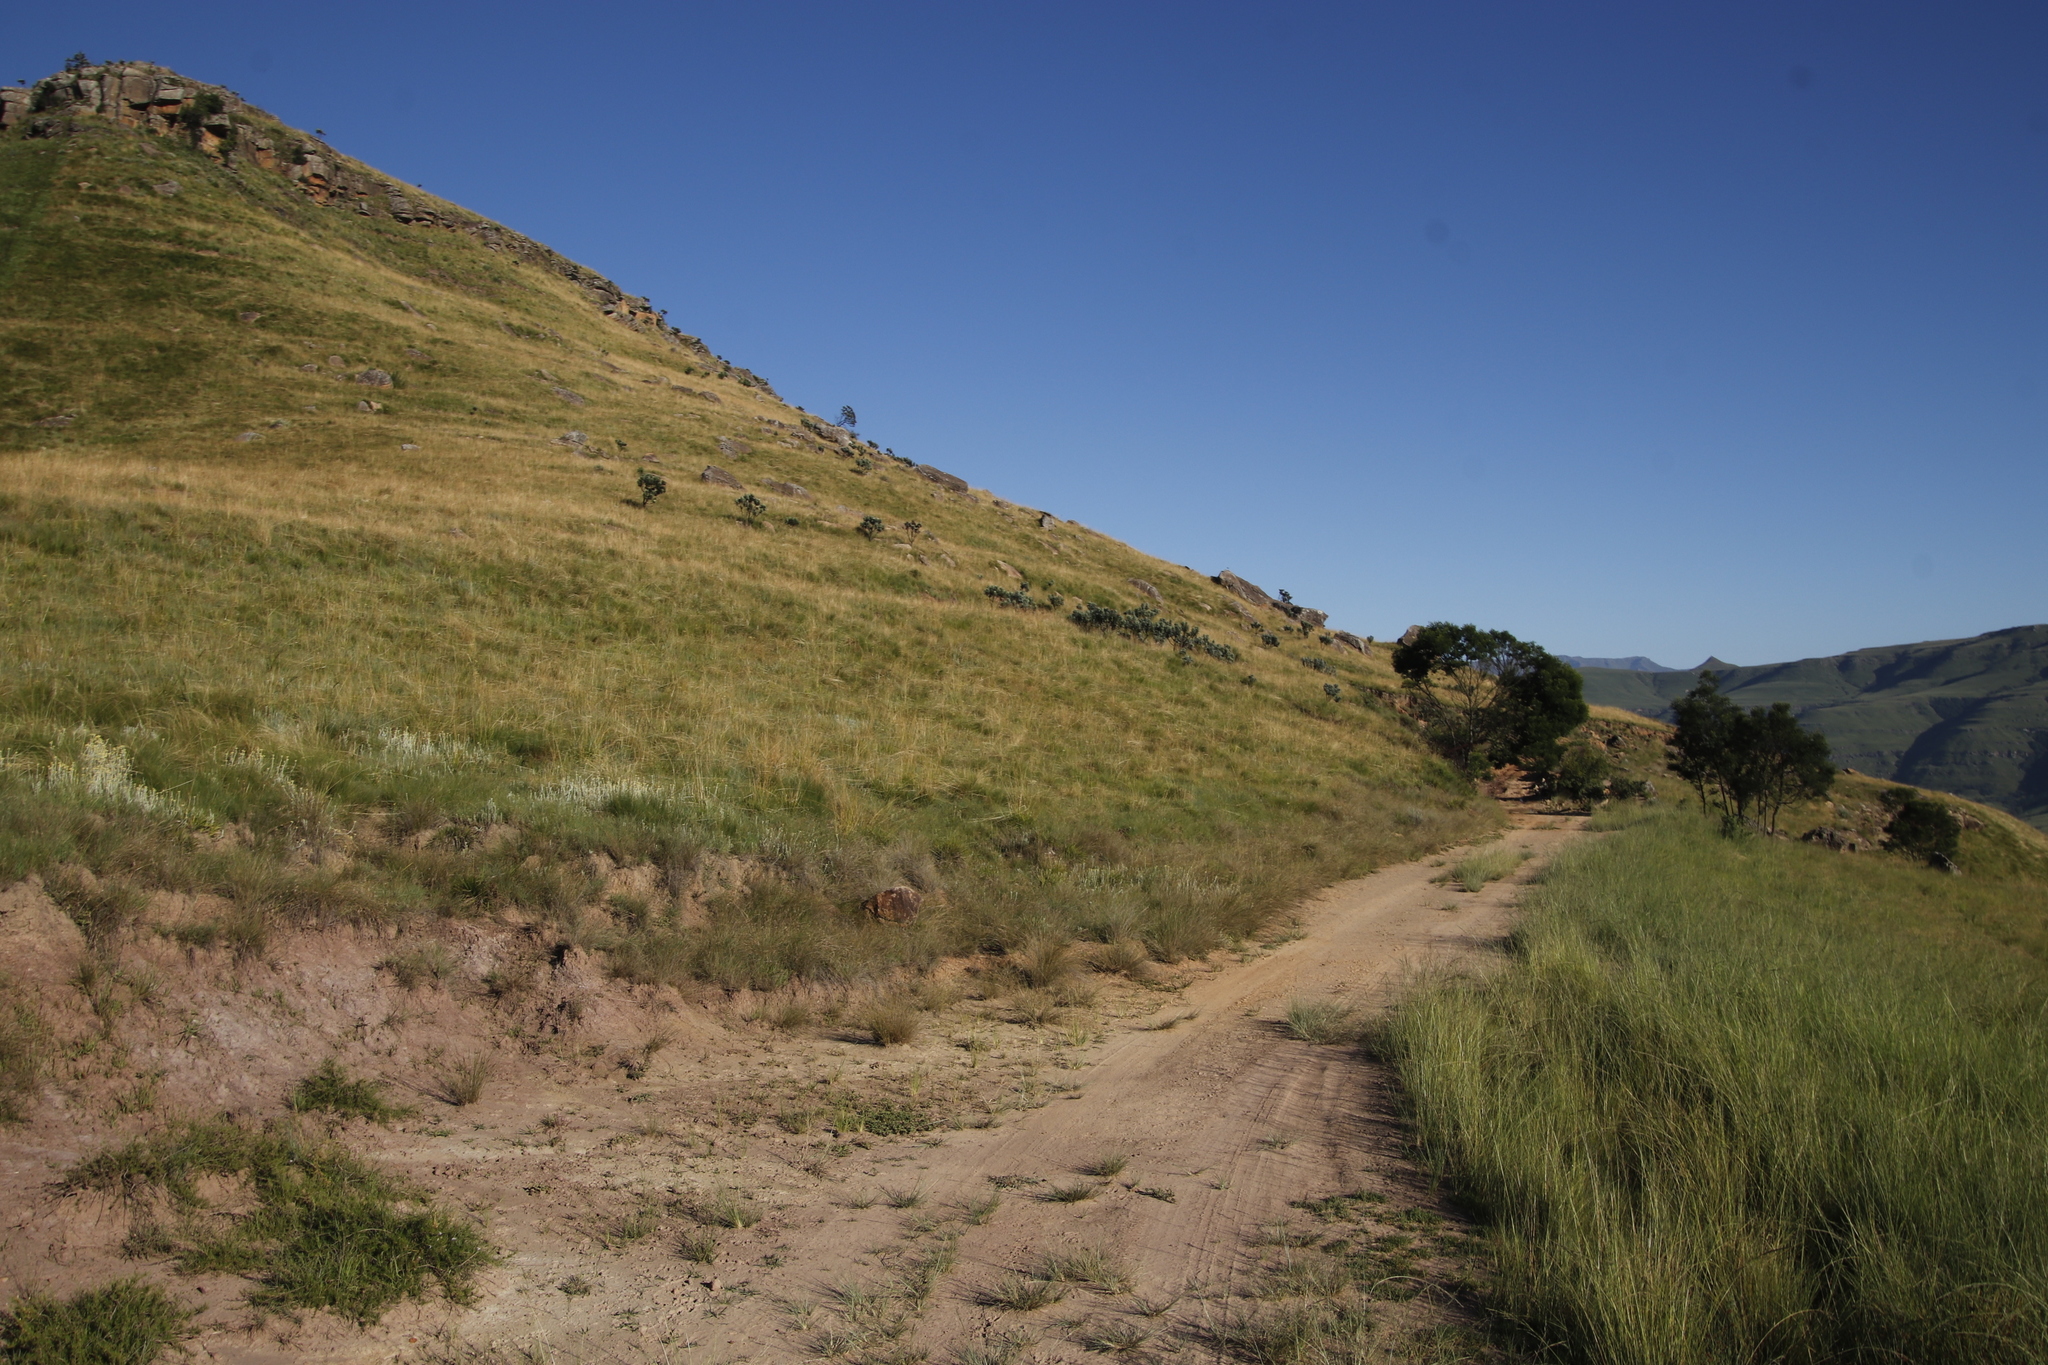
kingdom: Plantae
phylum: Tracheophyta
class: Magnoliopsida
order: Proteales
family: Proteaceae
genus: Protea
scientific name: Protea roupelliae
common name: Silver sugarbush
